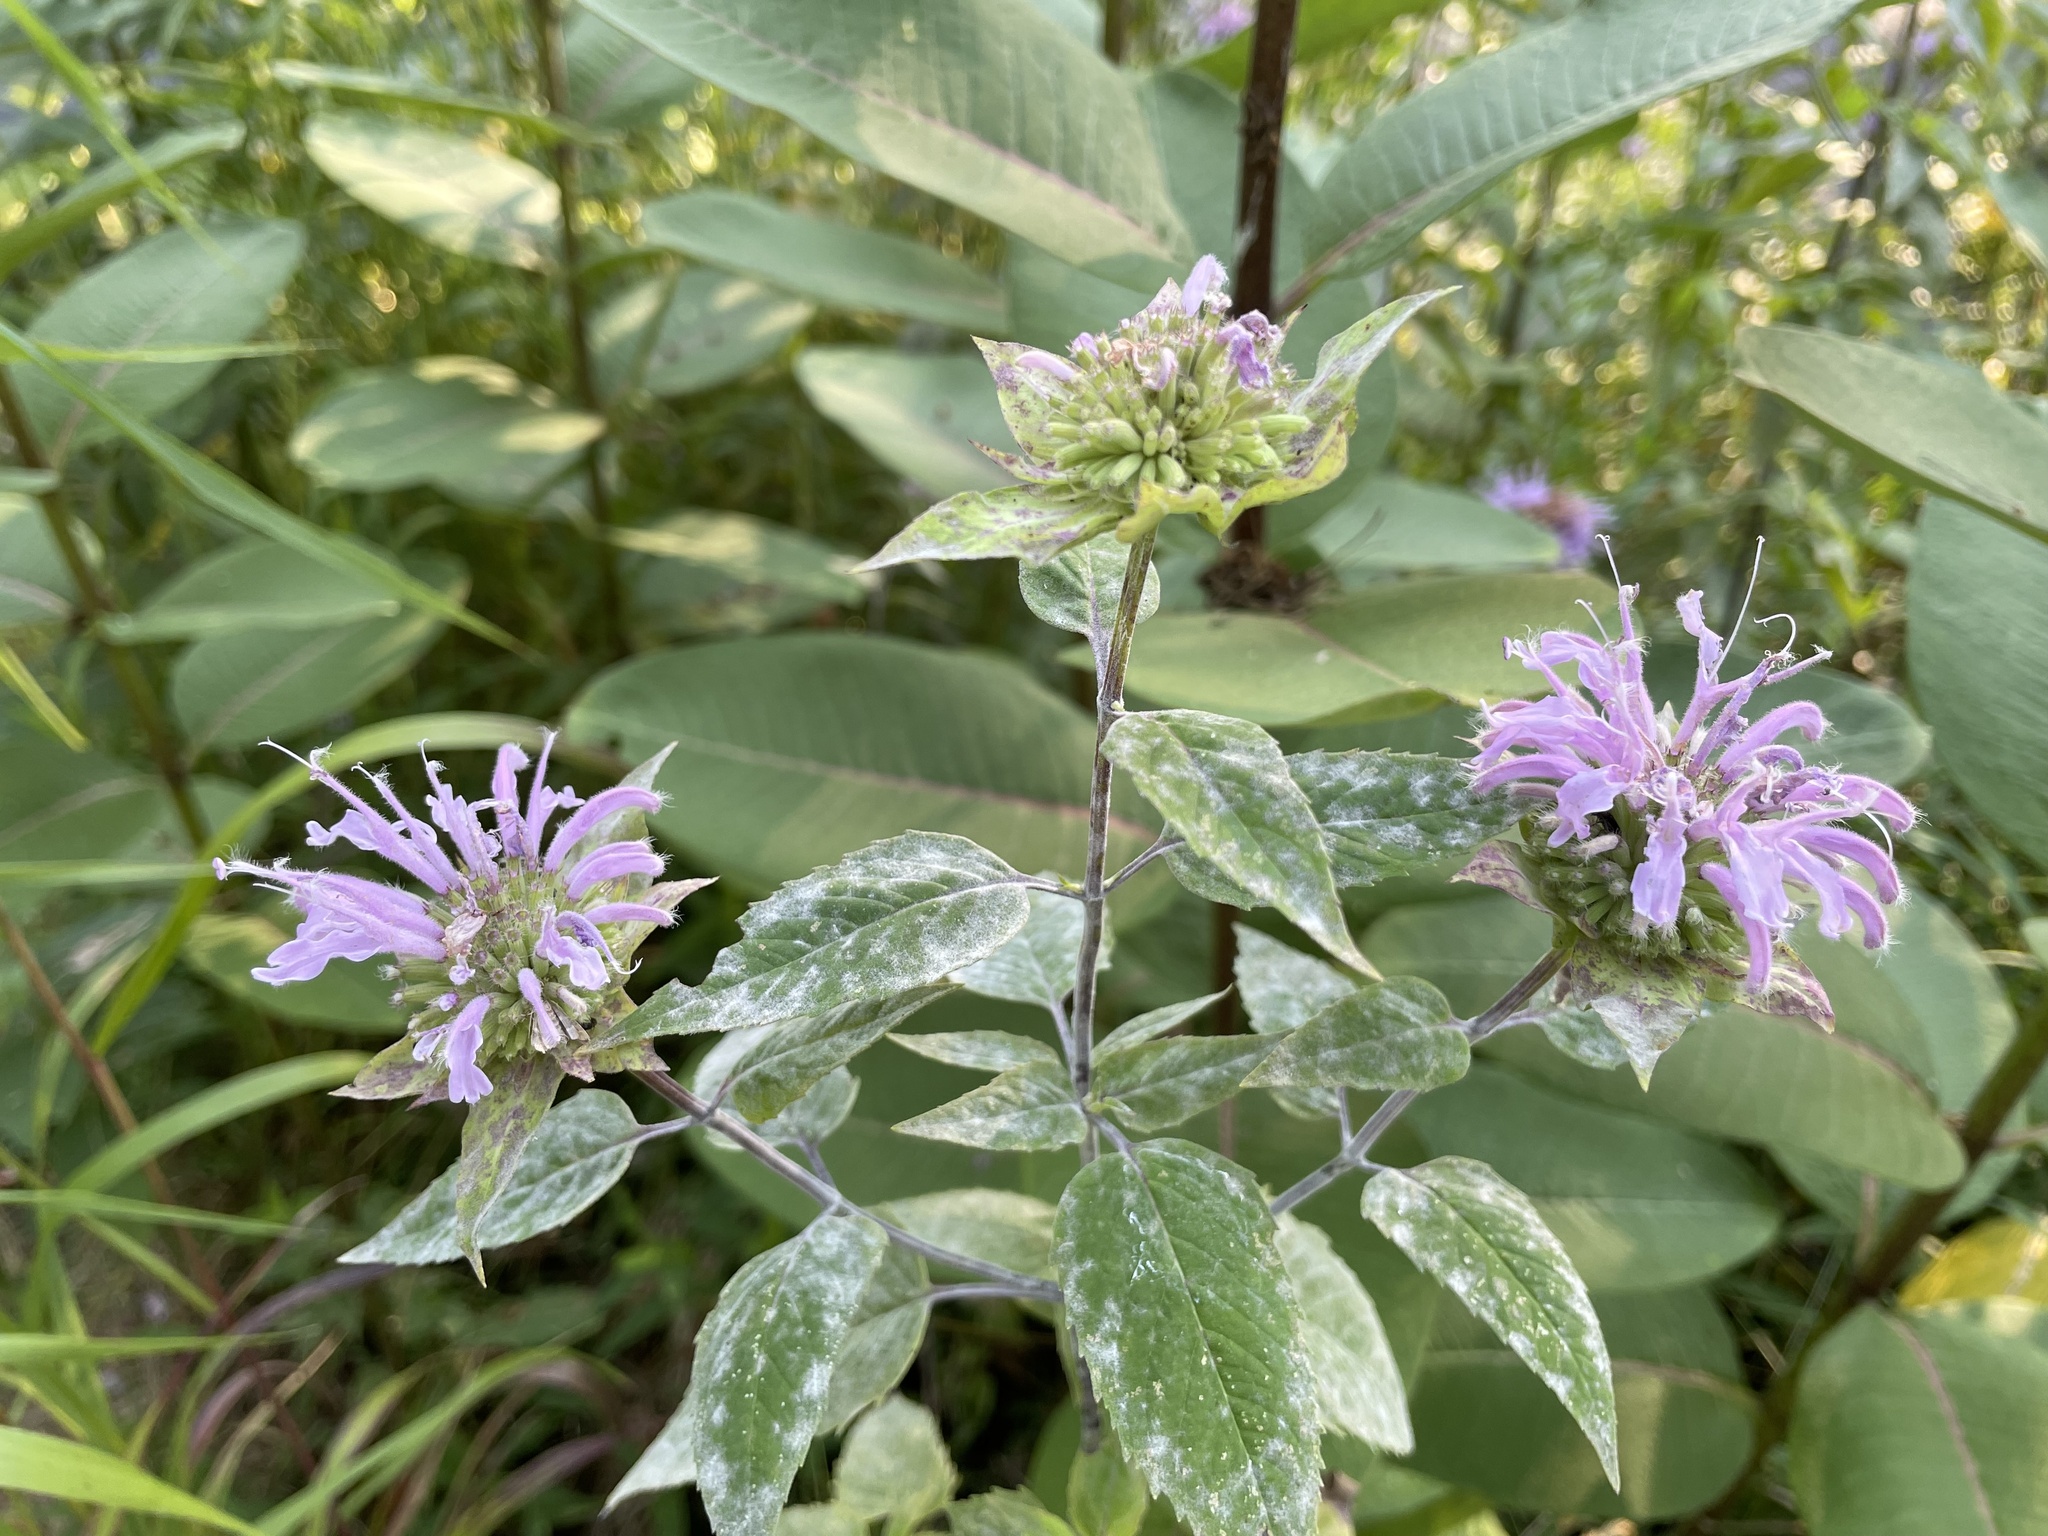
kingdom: Plantae
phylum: Tracheophyta
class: Magnoliopsida
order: Lamiales
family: Lamiaceae
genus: Monarda
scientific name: Monarda fistulosa
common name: Purple beebalm
